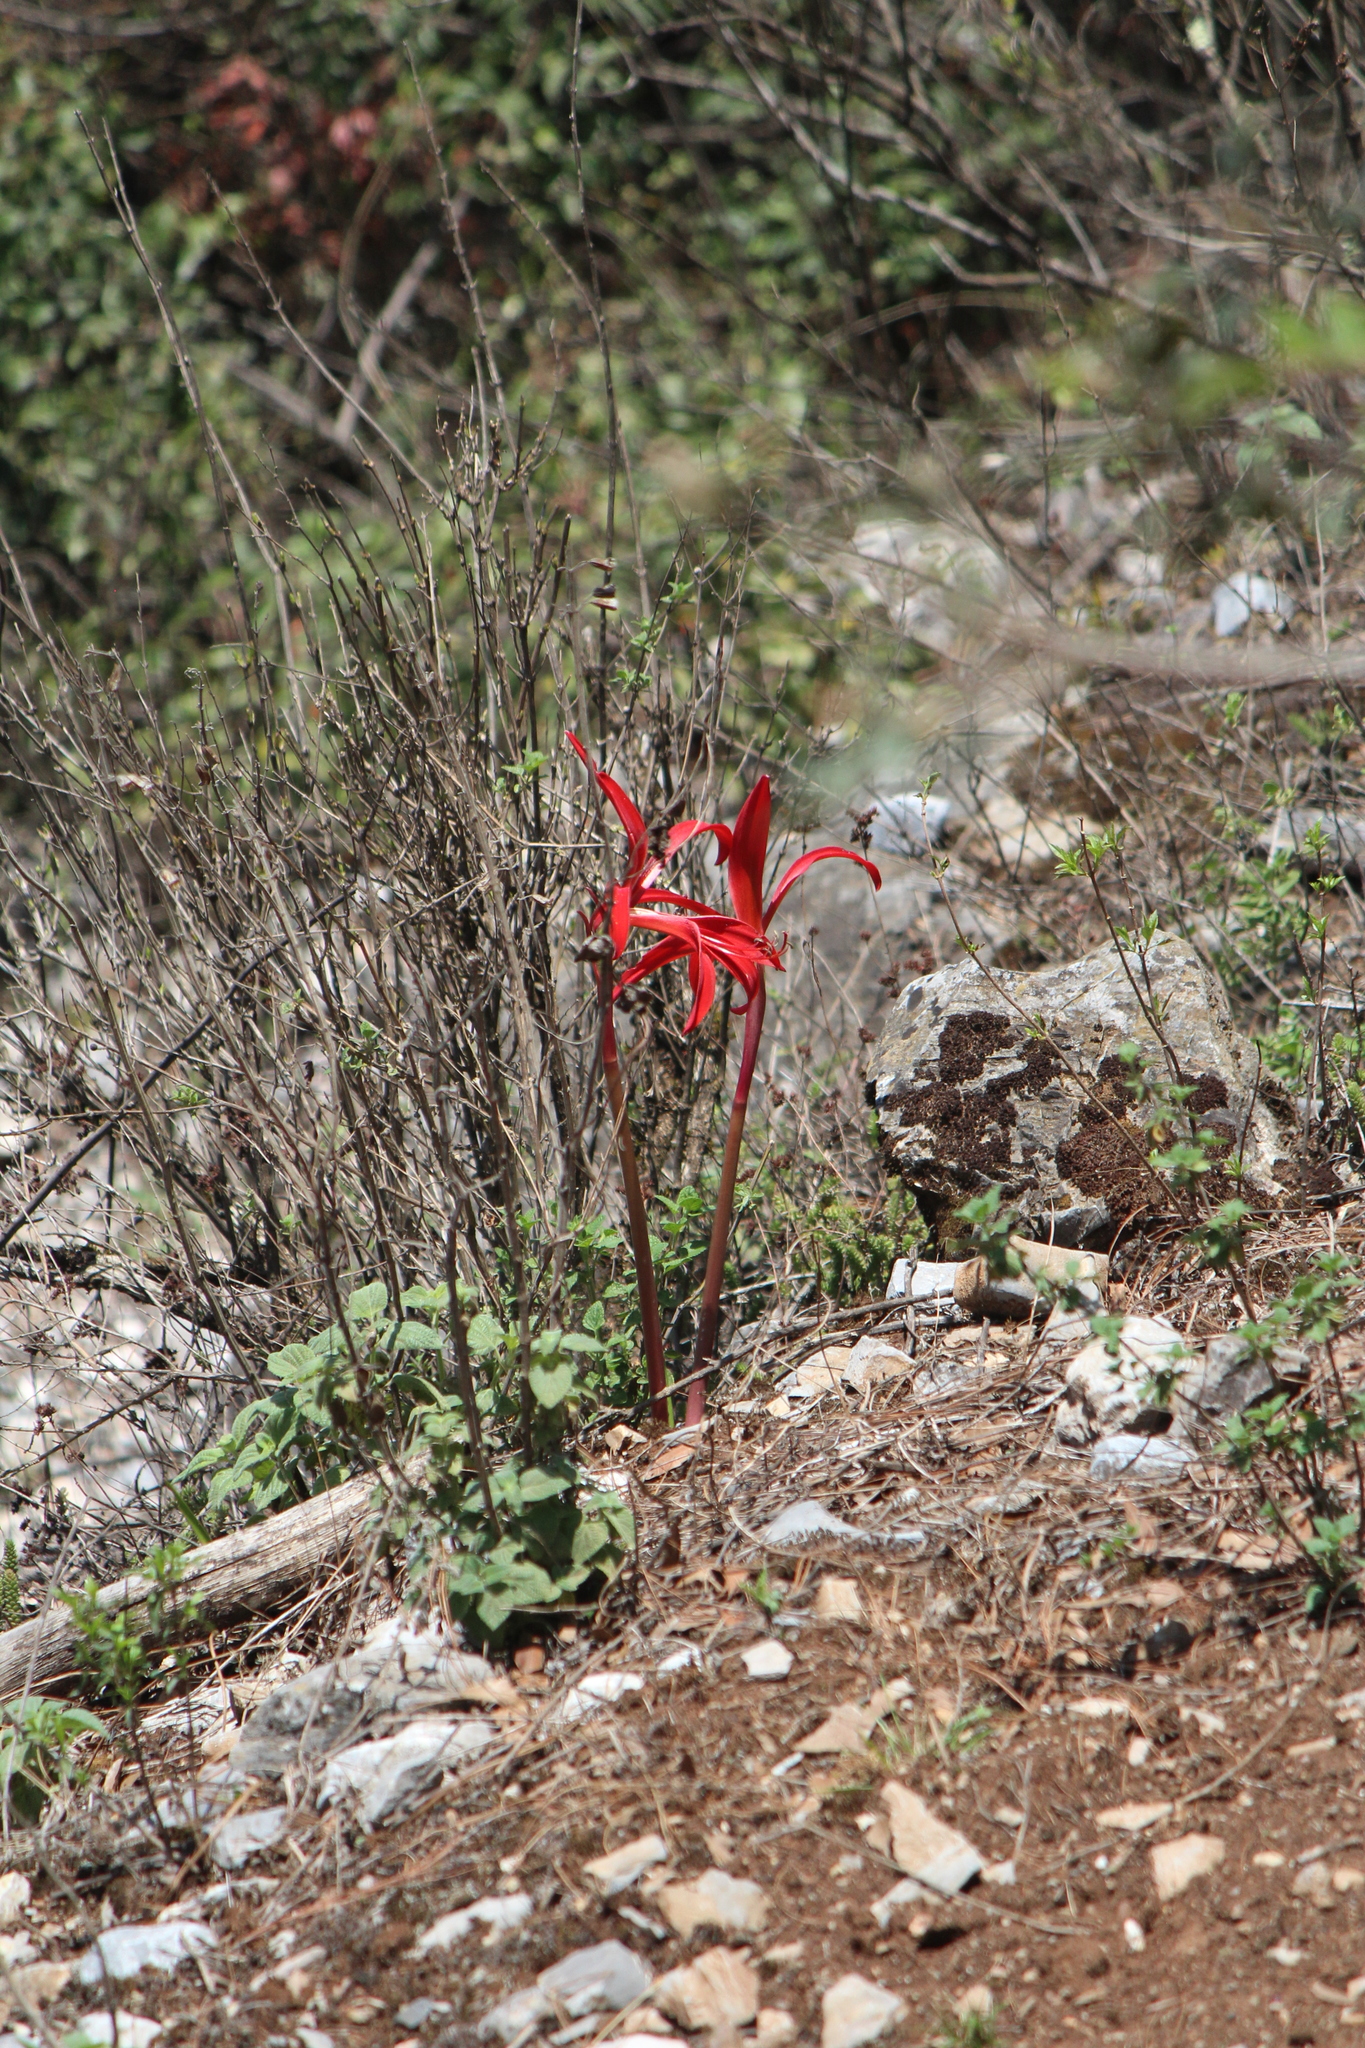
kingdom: Plantae
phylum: Tracheophyta
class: Liliopsida
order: Asparagales
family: Amaryllidaceae
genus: Sprekelia
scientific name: Sprekelia formosissima
